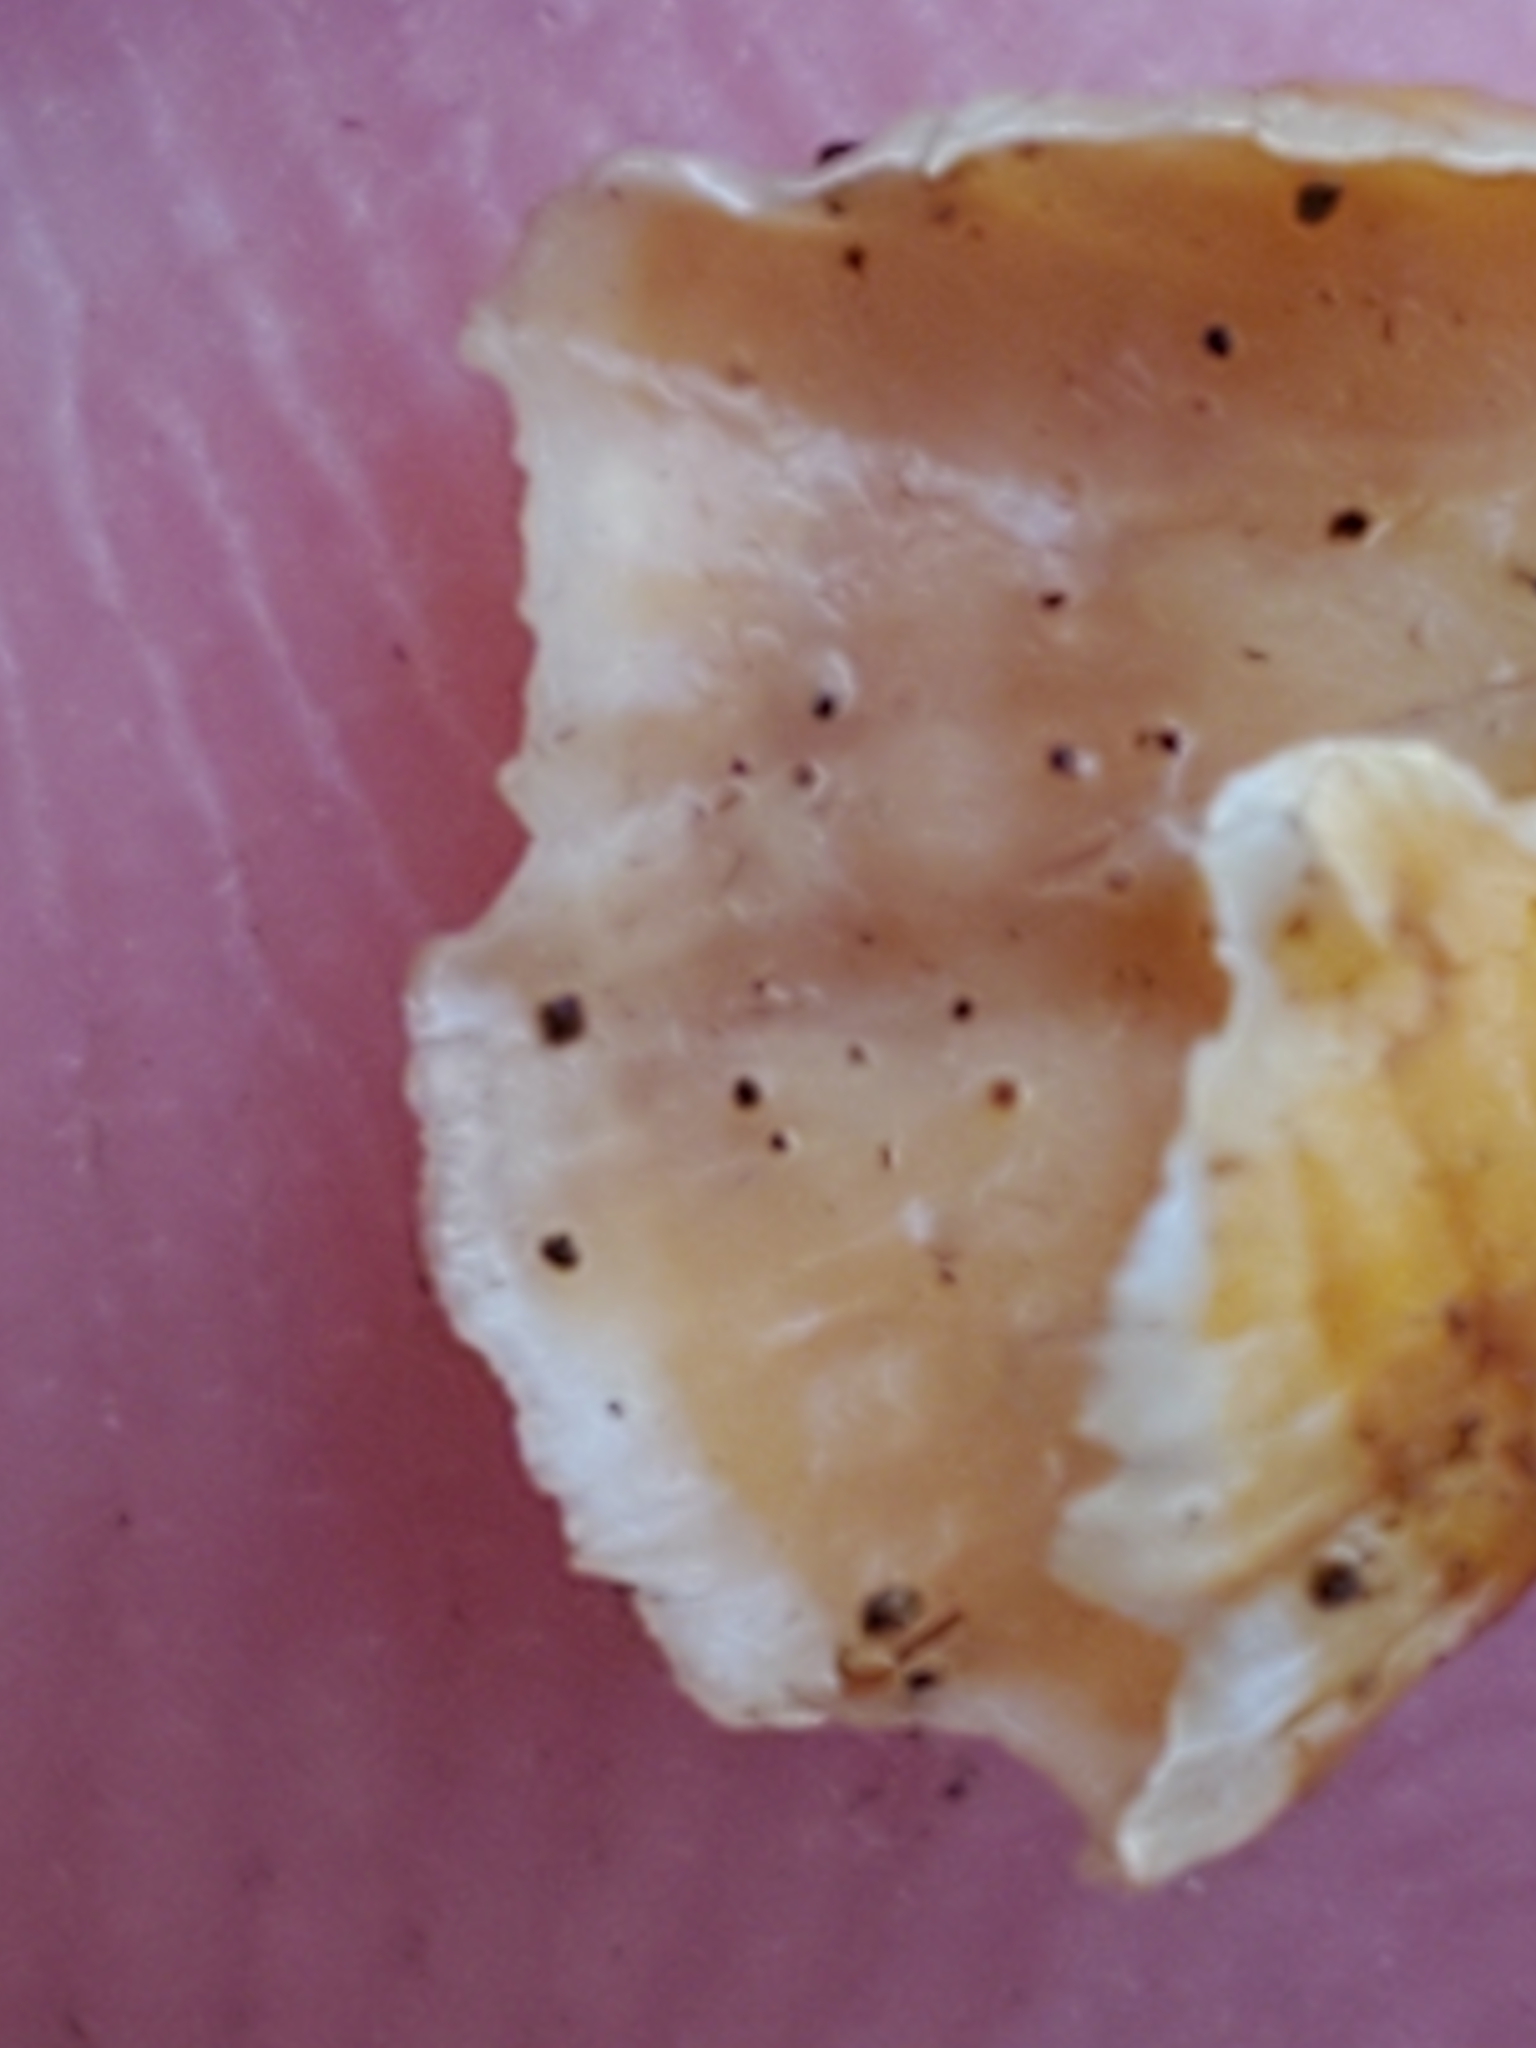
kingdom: Fungi
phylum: Basidiomycota
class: Agaricomycetes
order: Russulales
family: Stereaceae
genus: Stereum
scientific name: Stereum complicatum
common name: Crowded parchment
